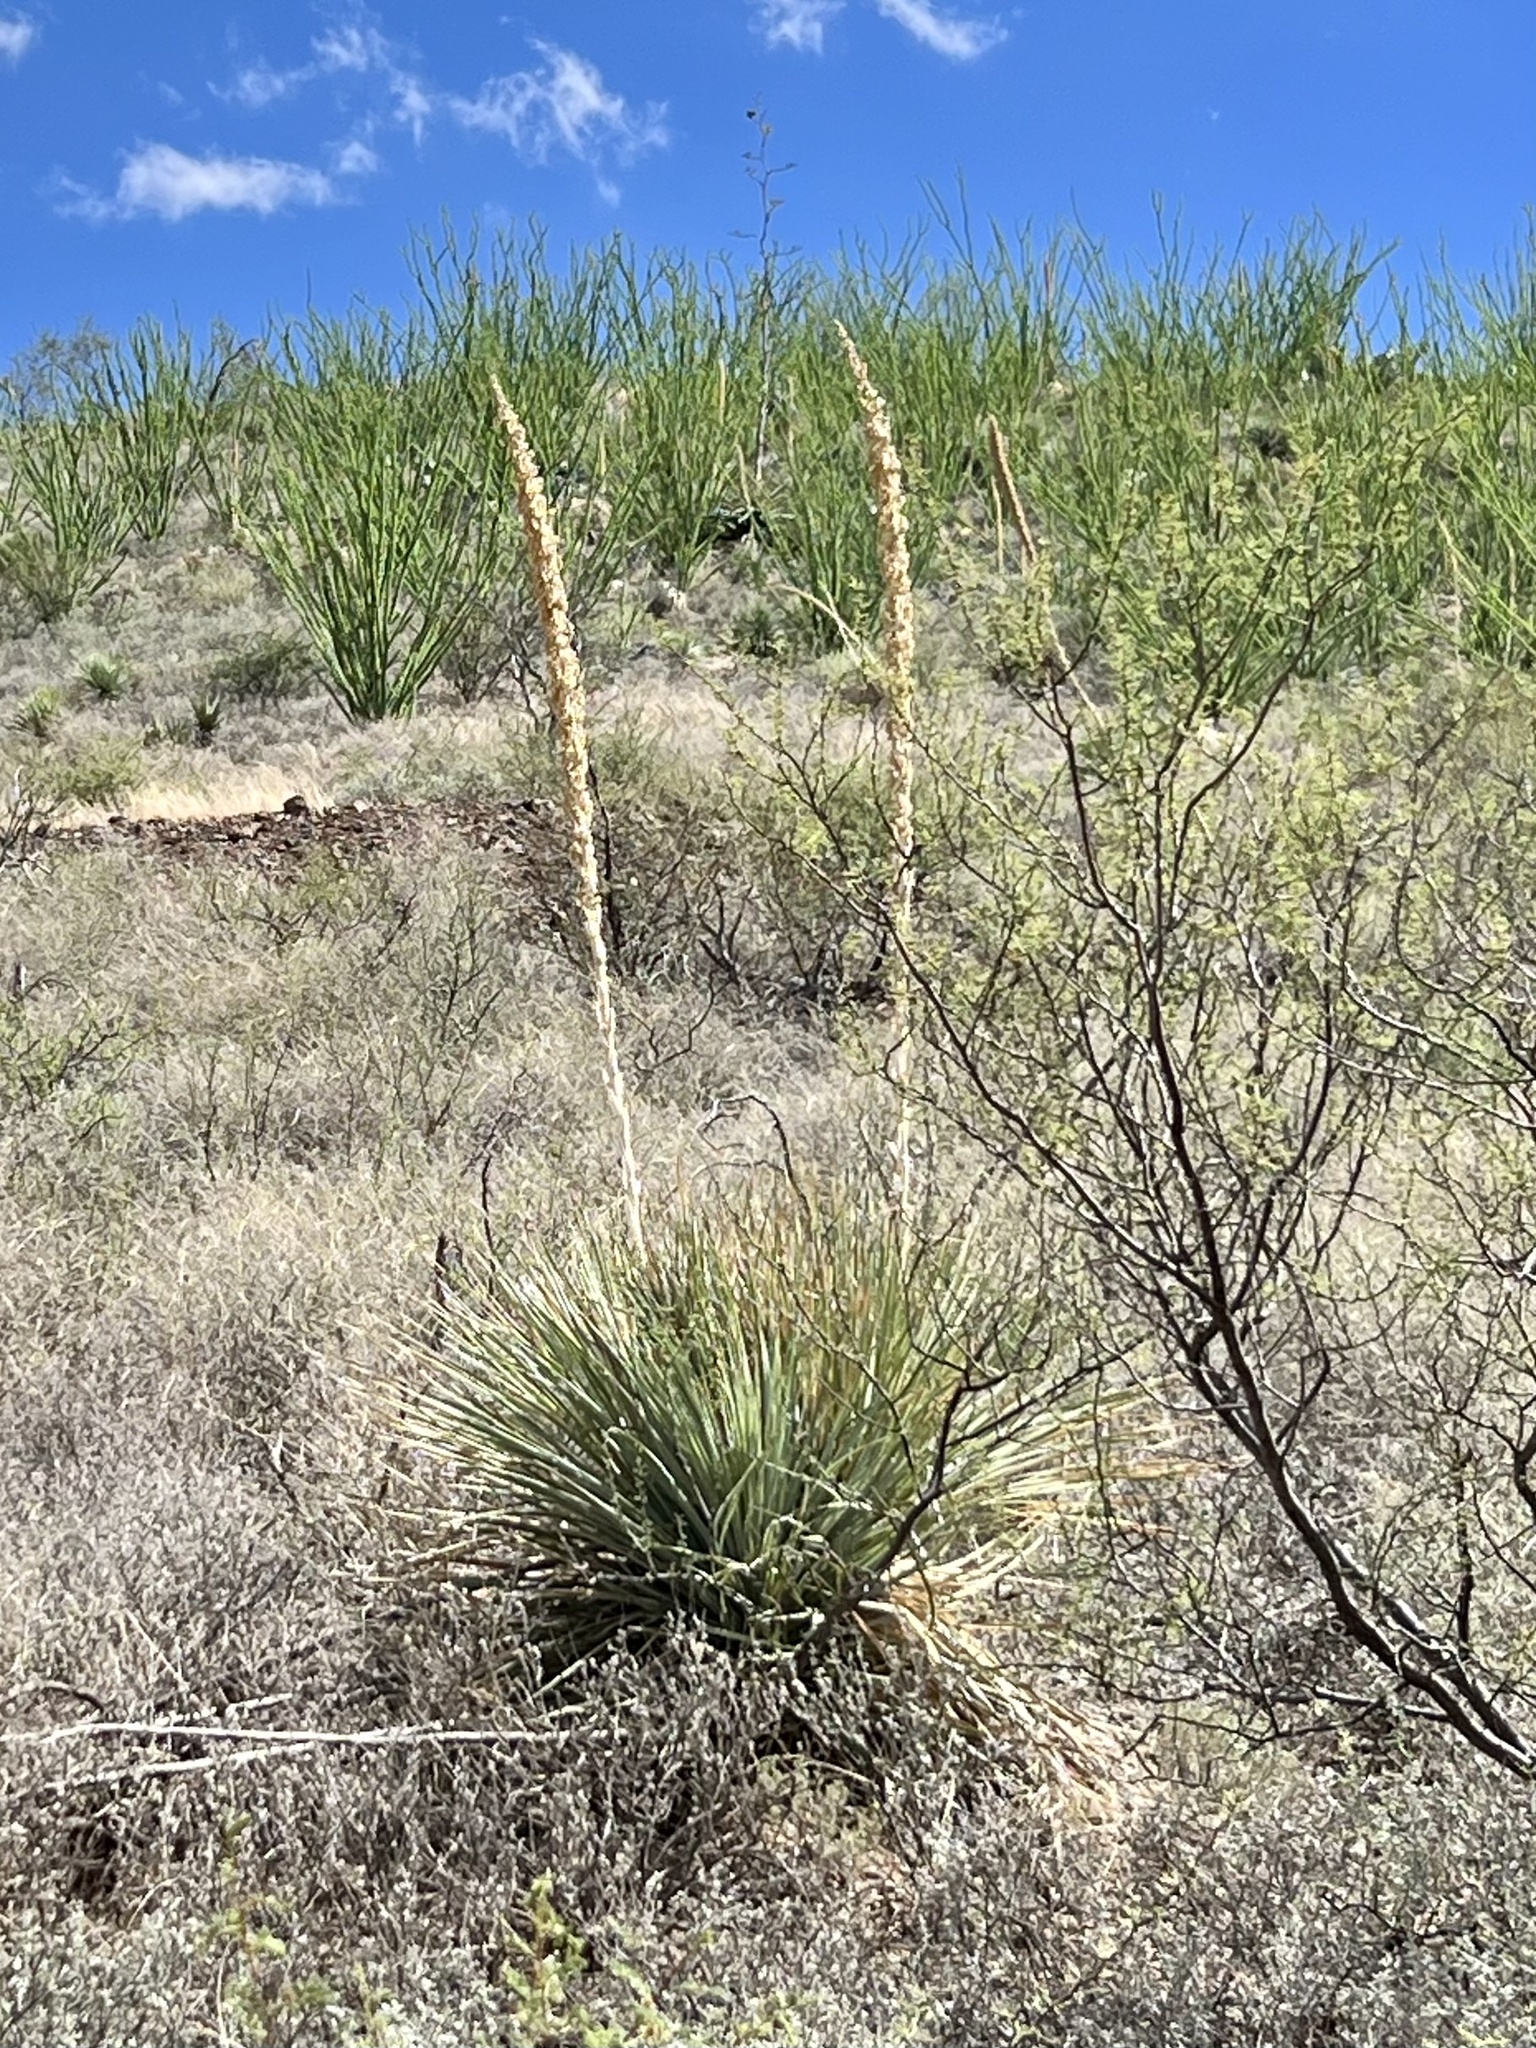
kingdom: Plantae
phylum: Tracheophyta
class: Liliopsida
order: Asparagales
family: Asparagaceae
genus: Dasylirion
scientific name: Dasylirion wheeleri
